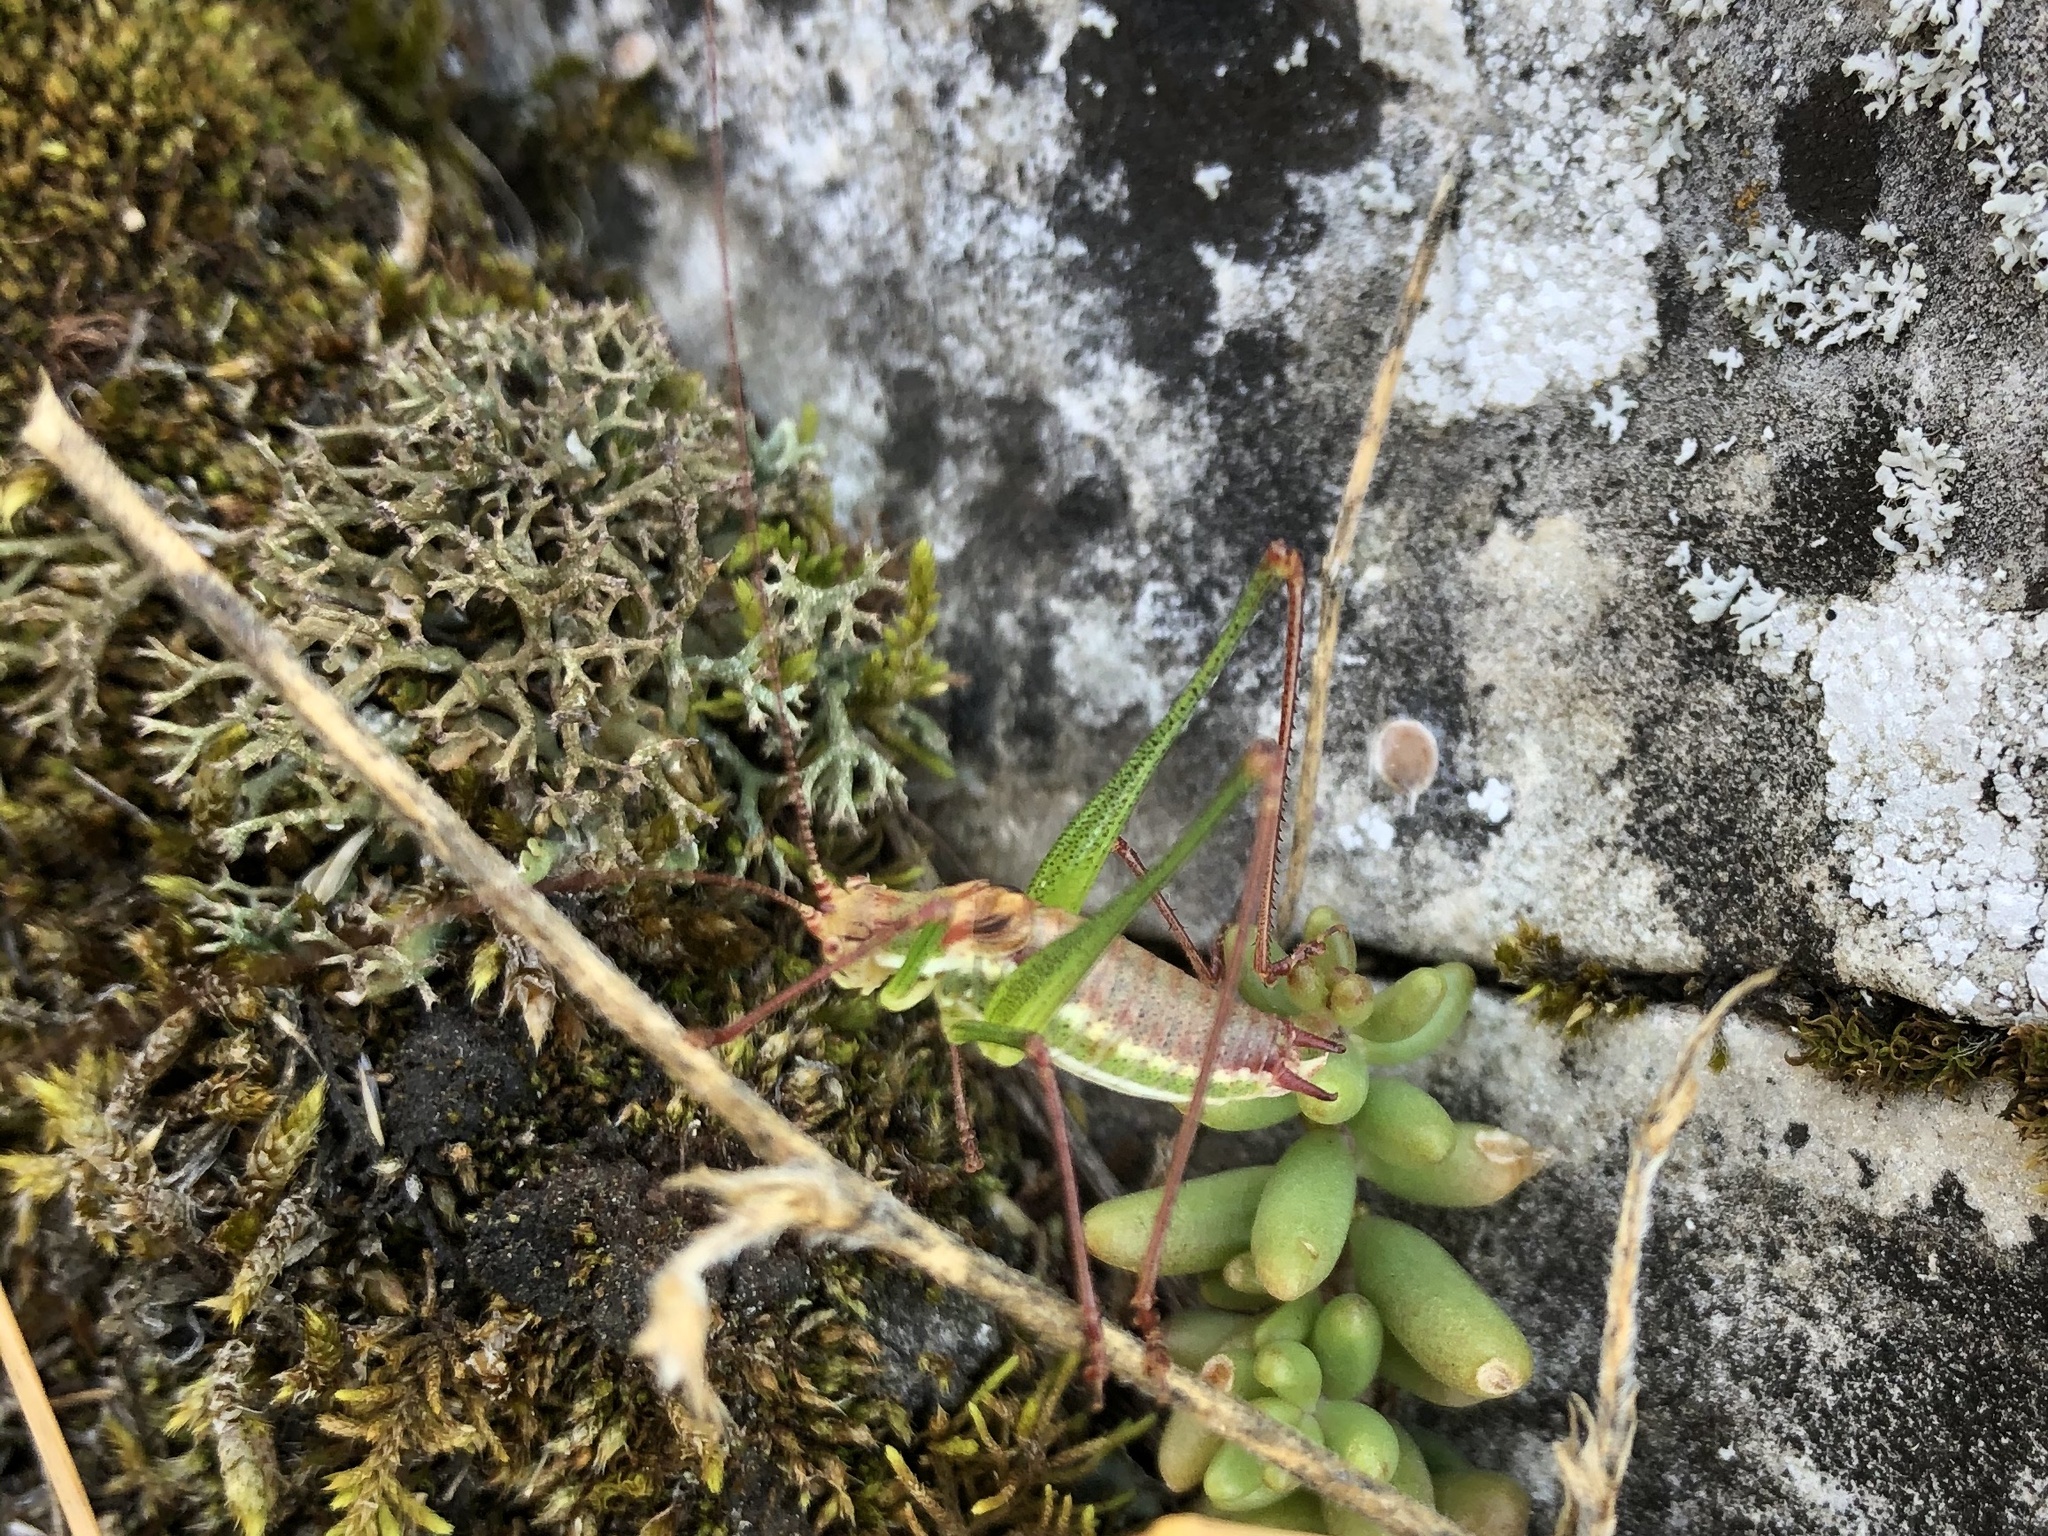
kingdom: Animalia
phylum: Arthropoda
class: Insecta
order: Orthoptera
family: Tettigoniidae
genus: Leptophyes
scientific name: Leptophyes albovittata
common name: Striped bush-cricket
